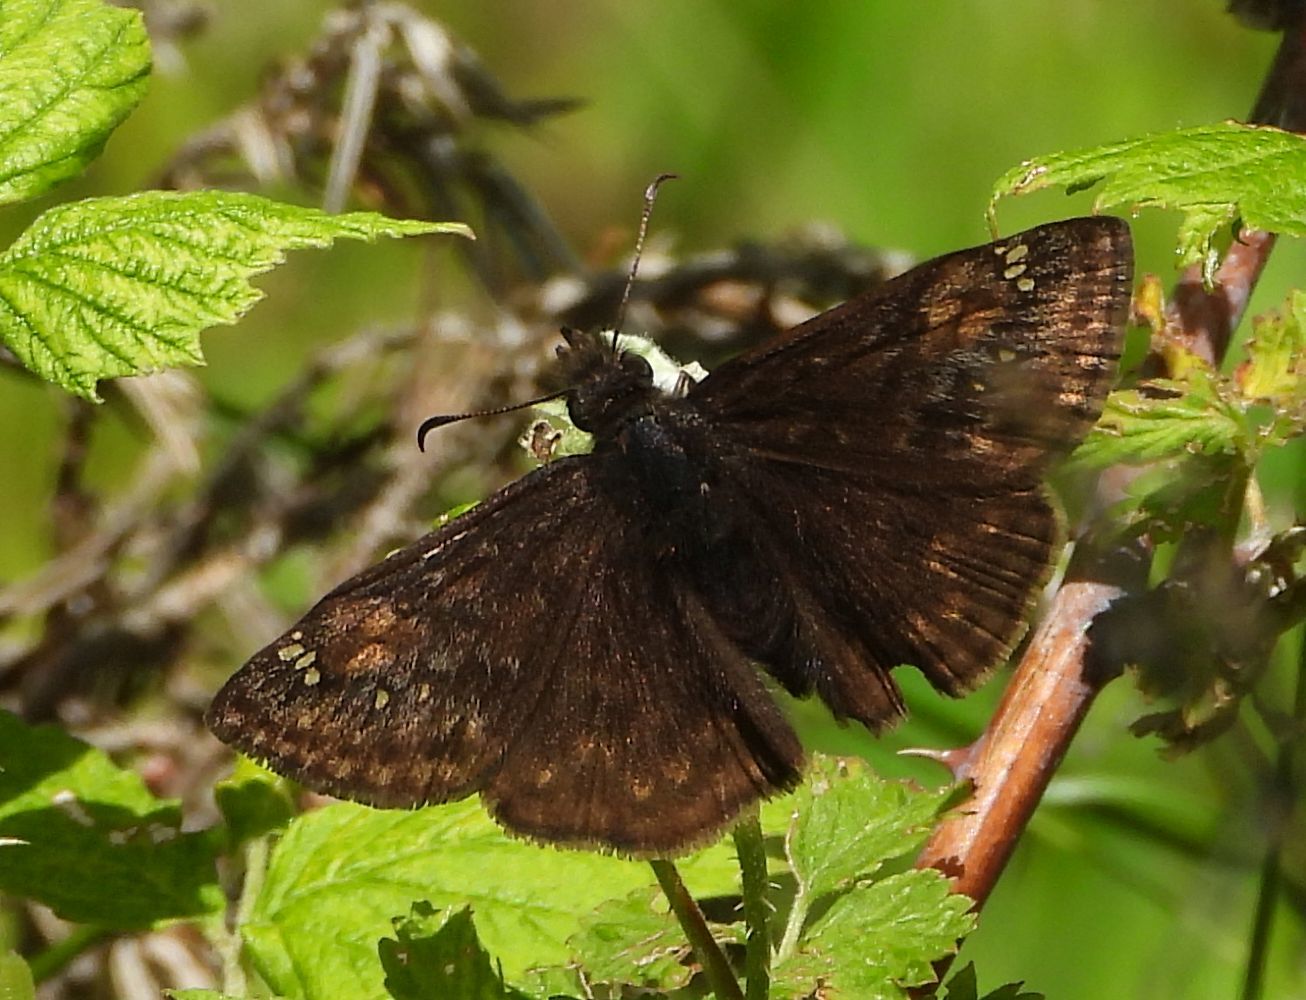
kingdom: Animalia
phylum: Arthropoda
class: Insecta
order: Lepidoptera
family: Hesperiidae
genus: Erynnis
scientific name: Erynnis juvenalis
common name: Juvenal's duskywing
